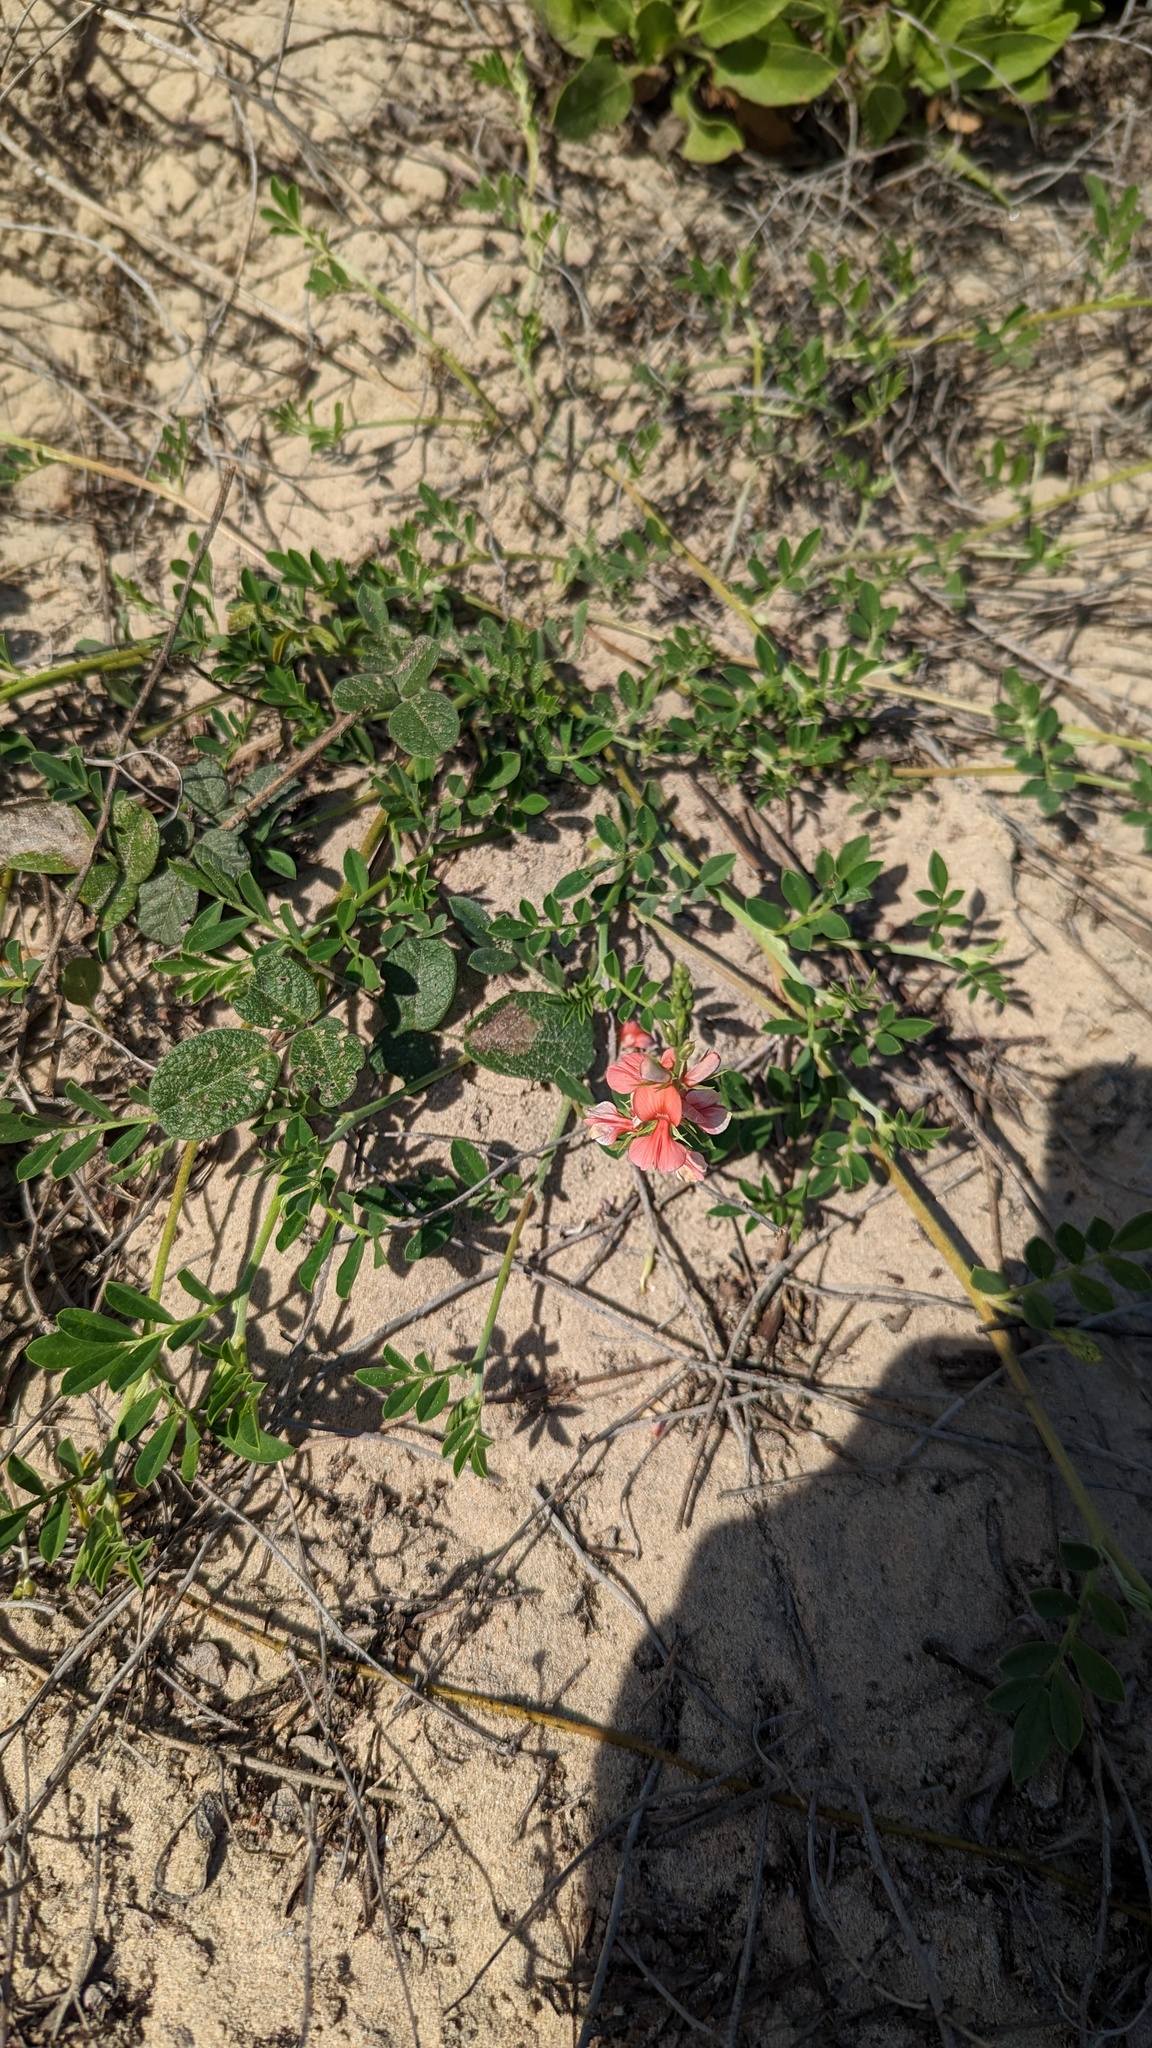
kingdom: Plantae
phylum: Tracheophyta
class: Magnoliopsida
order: Fabales
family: Fabaceae
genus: Indigofera
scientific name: Indigofera miniata
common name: Coast indigo
